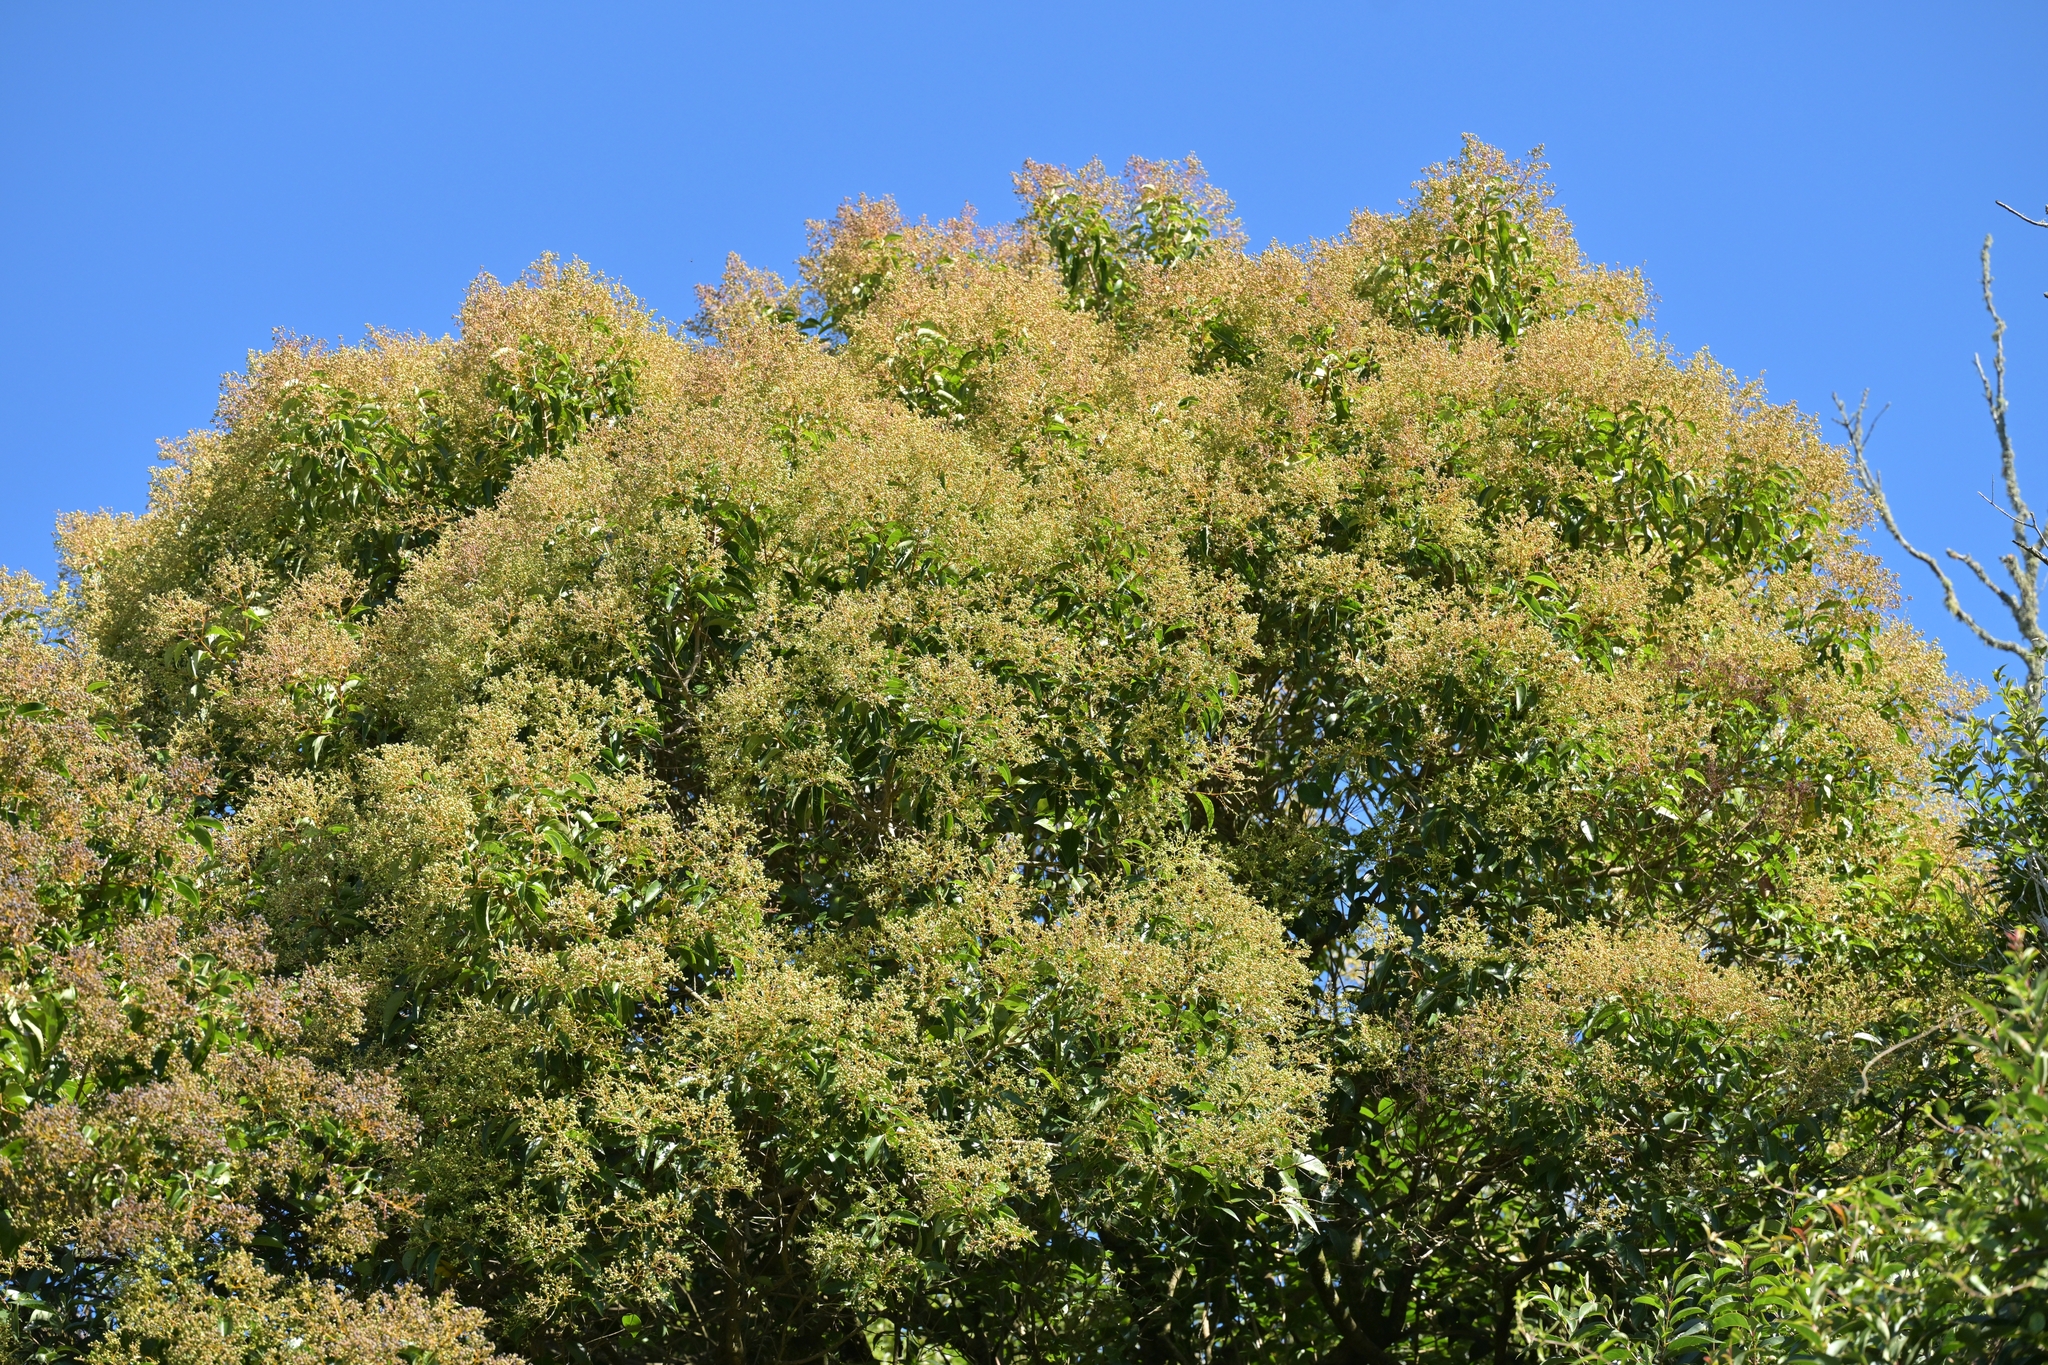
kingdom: Plantae
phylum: Tracheophyta
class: Magnoliopsida
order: Lamiales
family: Oleaceae
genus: Ligustrum
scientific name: Ligustrum lucidum
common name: Glossy privet
